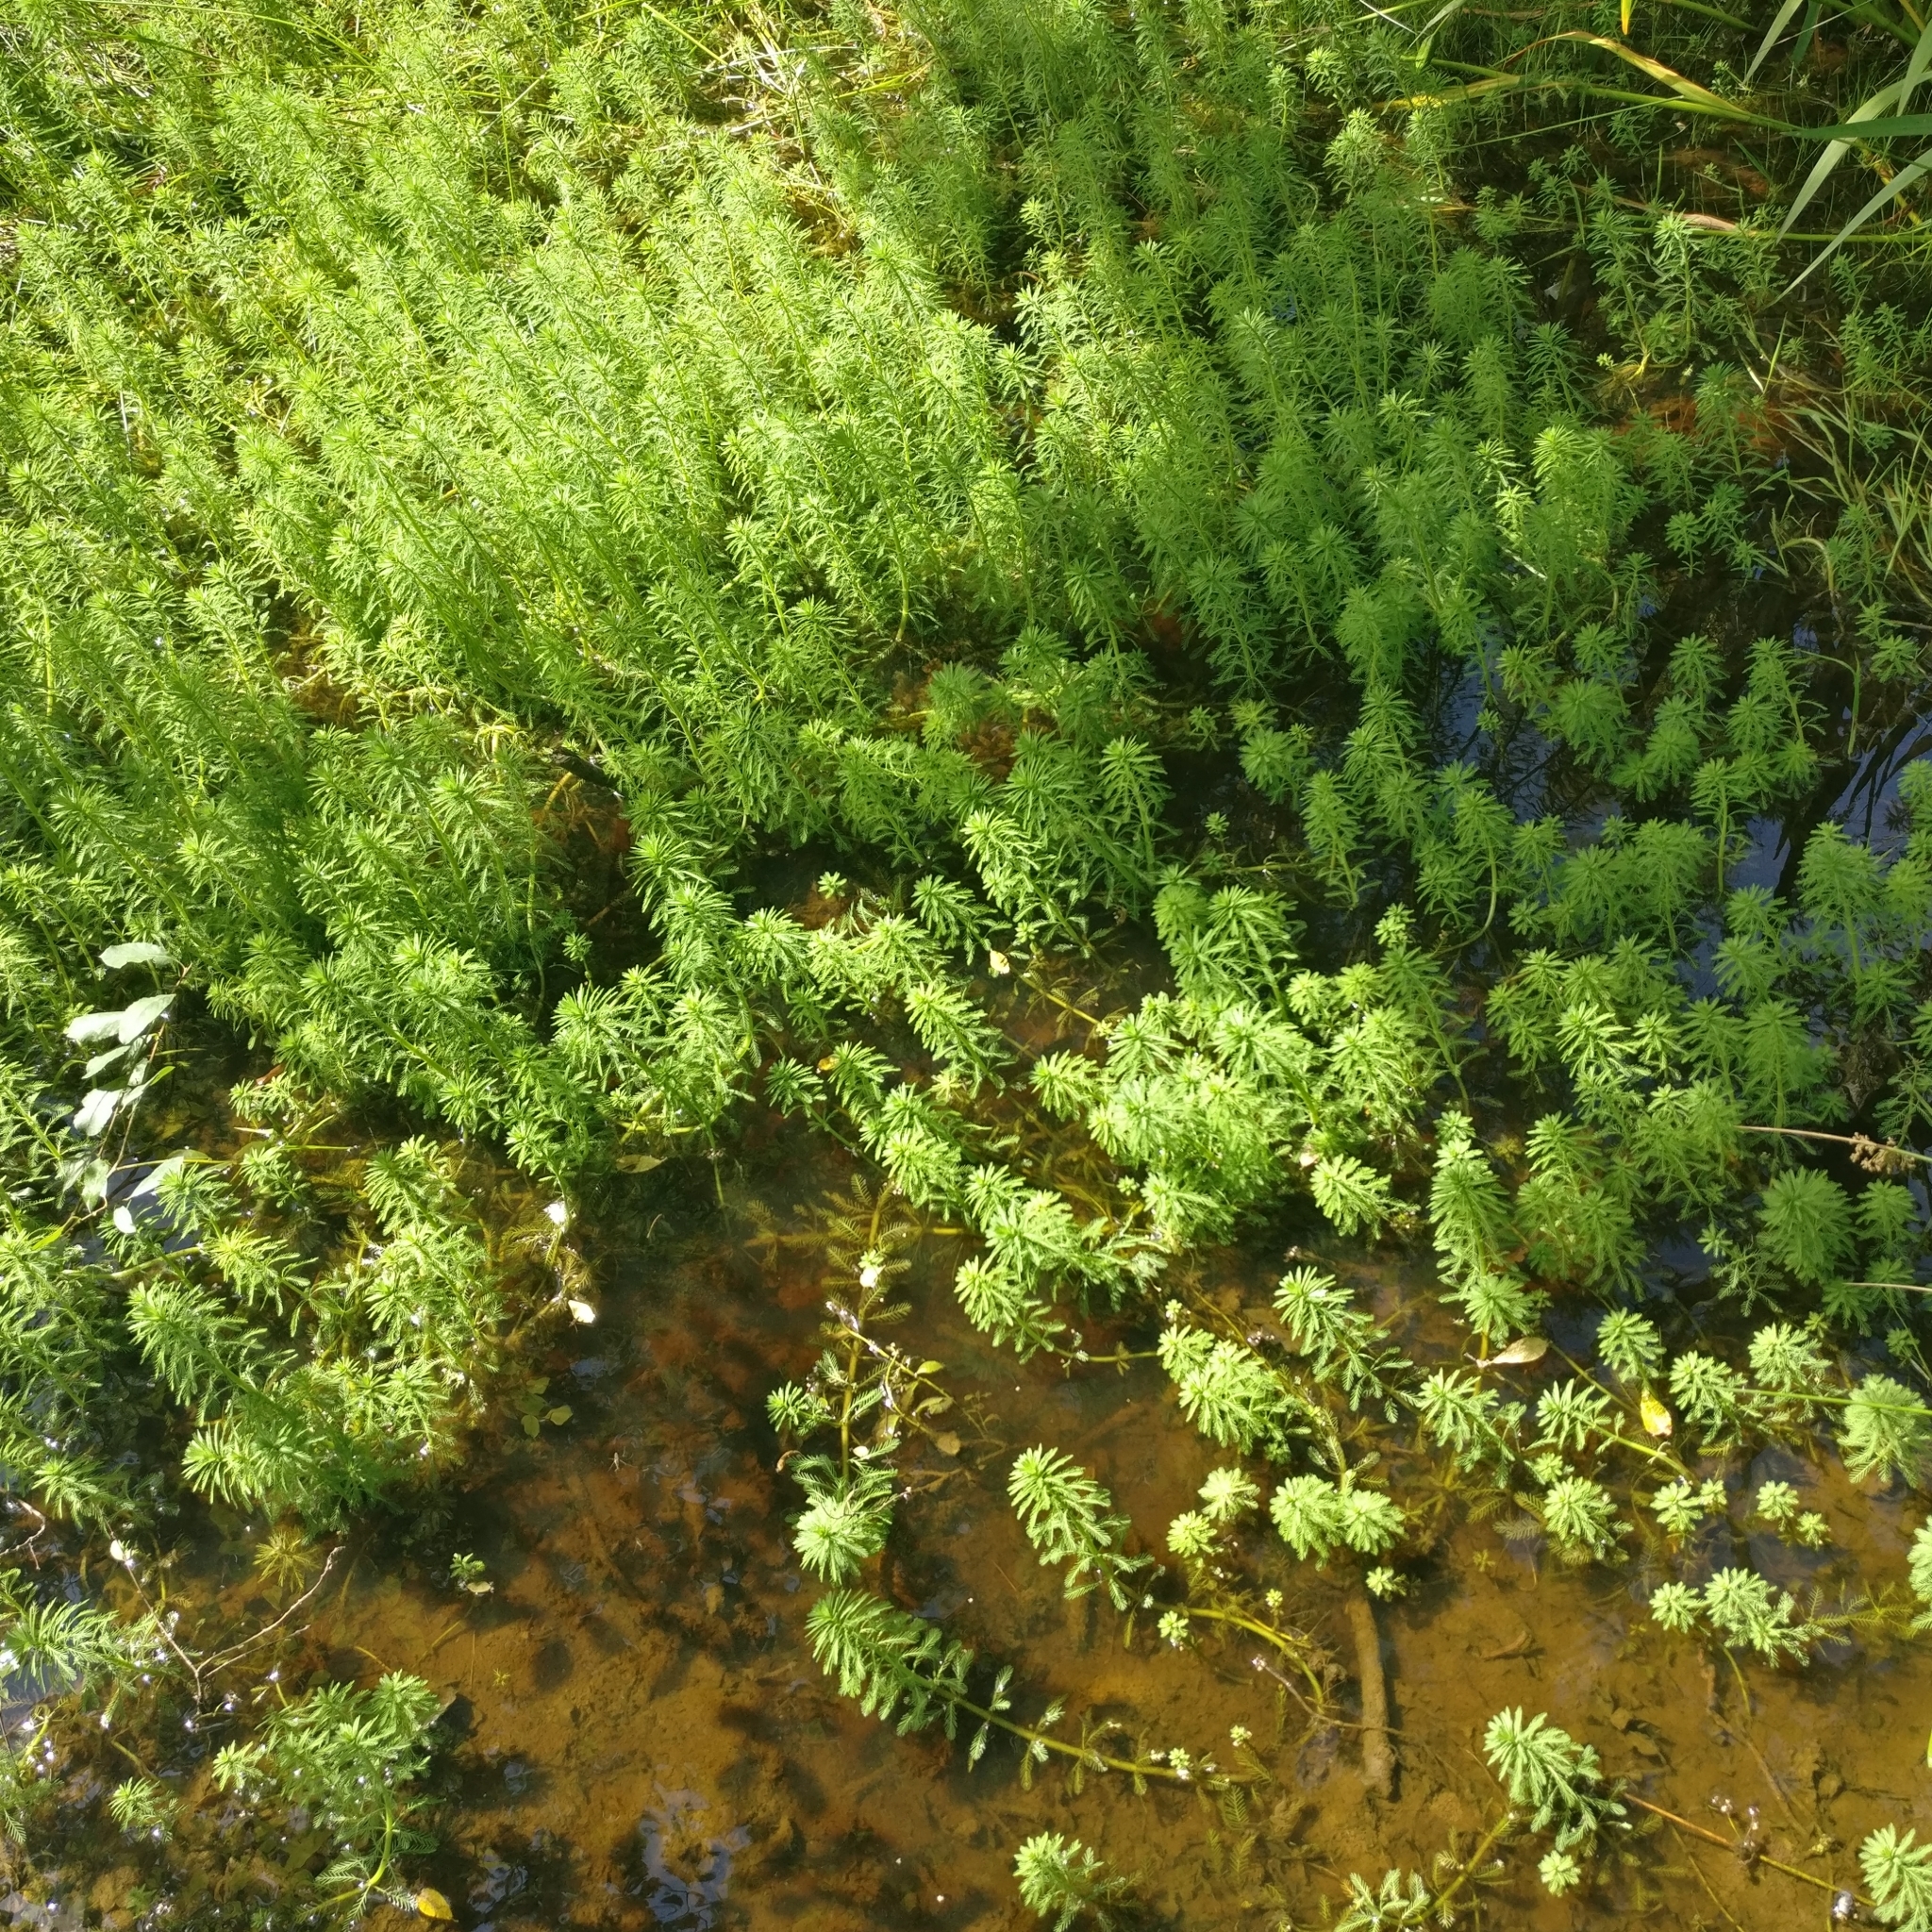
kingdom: Plantae
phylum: Tracheophyta
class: Magnoliopsida
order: Saxifragales
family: Haloragaceae
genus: Myriophyllum
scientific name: Myriophyllum aquaticum
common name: Parrot's feather
